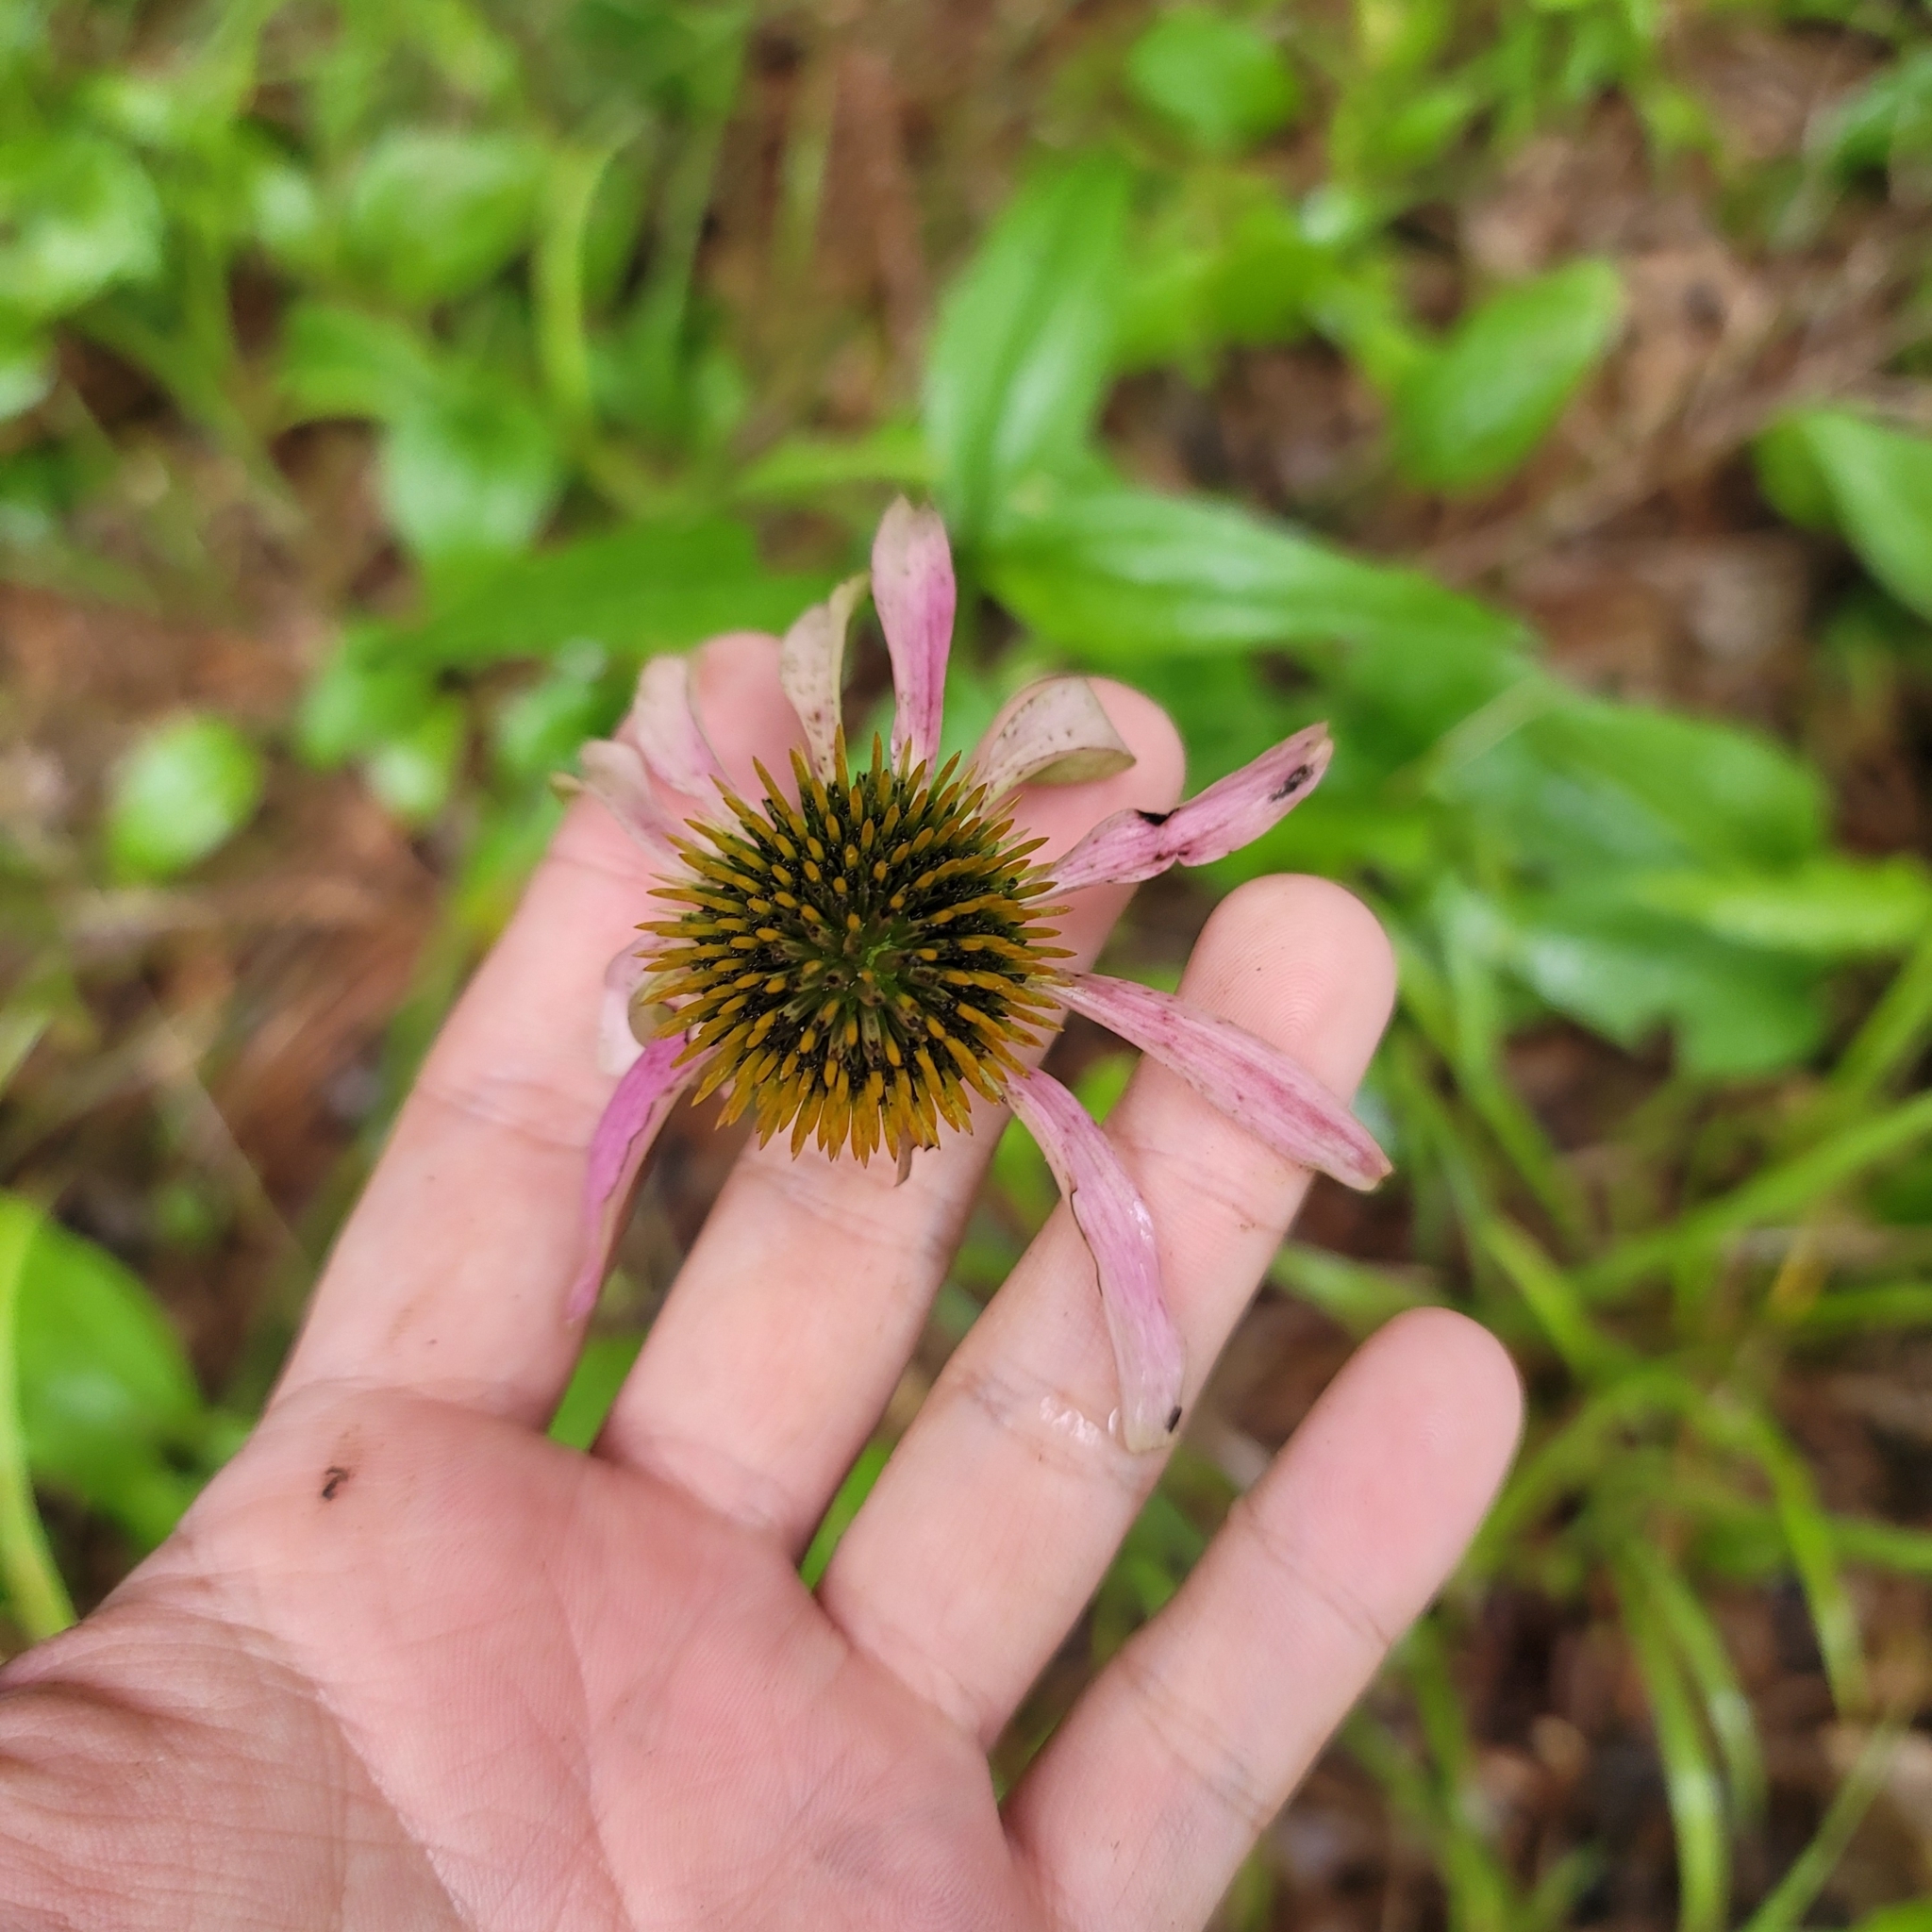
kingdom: Plantae
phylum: Tracheophyta
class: Magnoliopsida
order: Asterales
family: Asteraceae
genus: Echinacea
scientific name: Echinacea purpurea
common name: Broad-leaved purple coneflower
